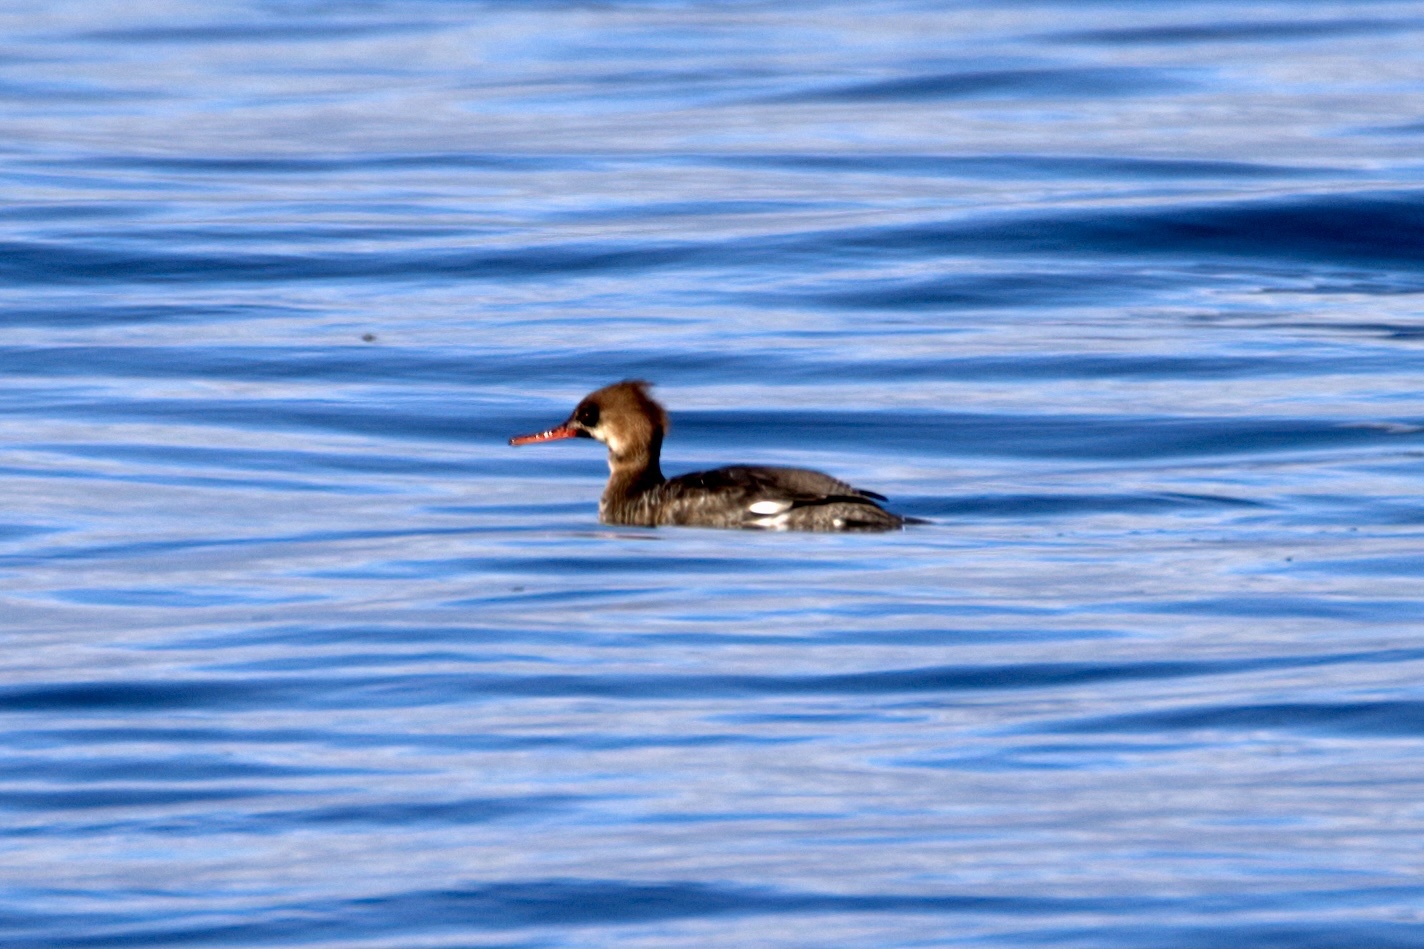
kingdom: Animalia
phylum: Chordata
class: Aves
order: Anseriformes
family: Anatidae
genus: Mergus
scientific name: Mergus serrator
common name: Red-breasted merganser
